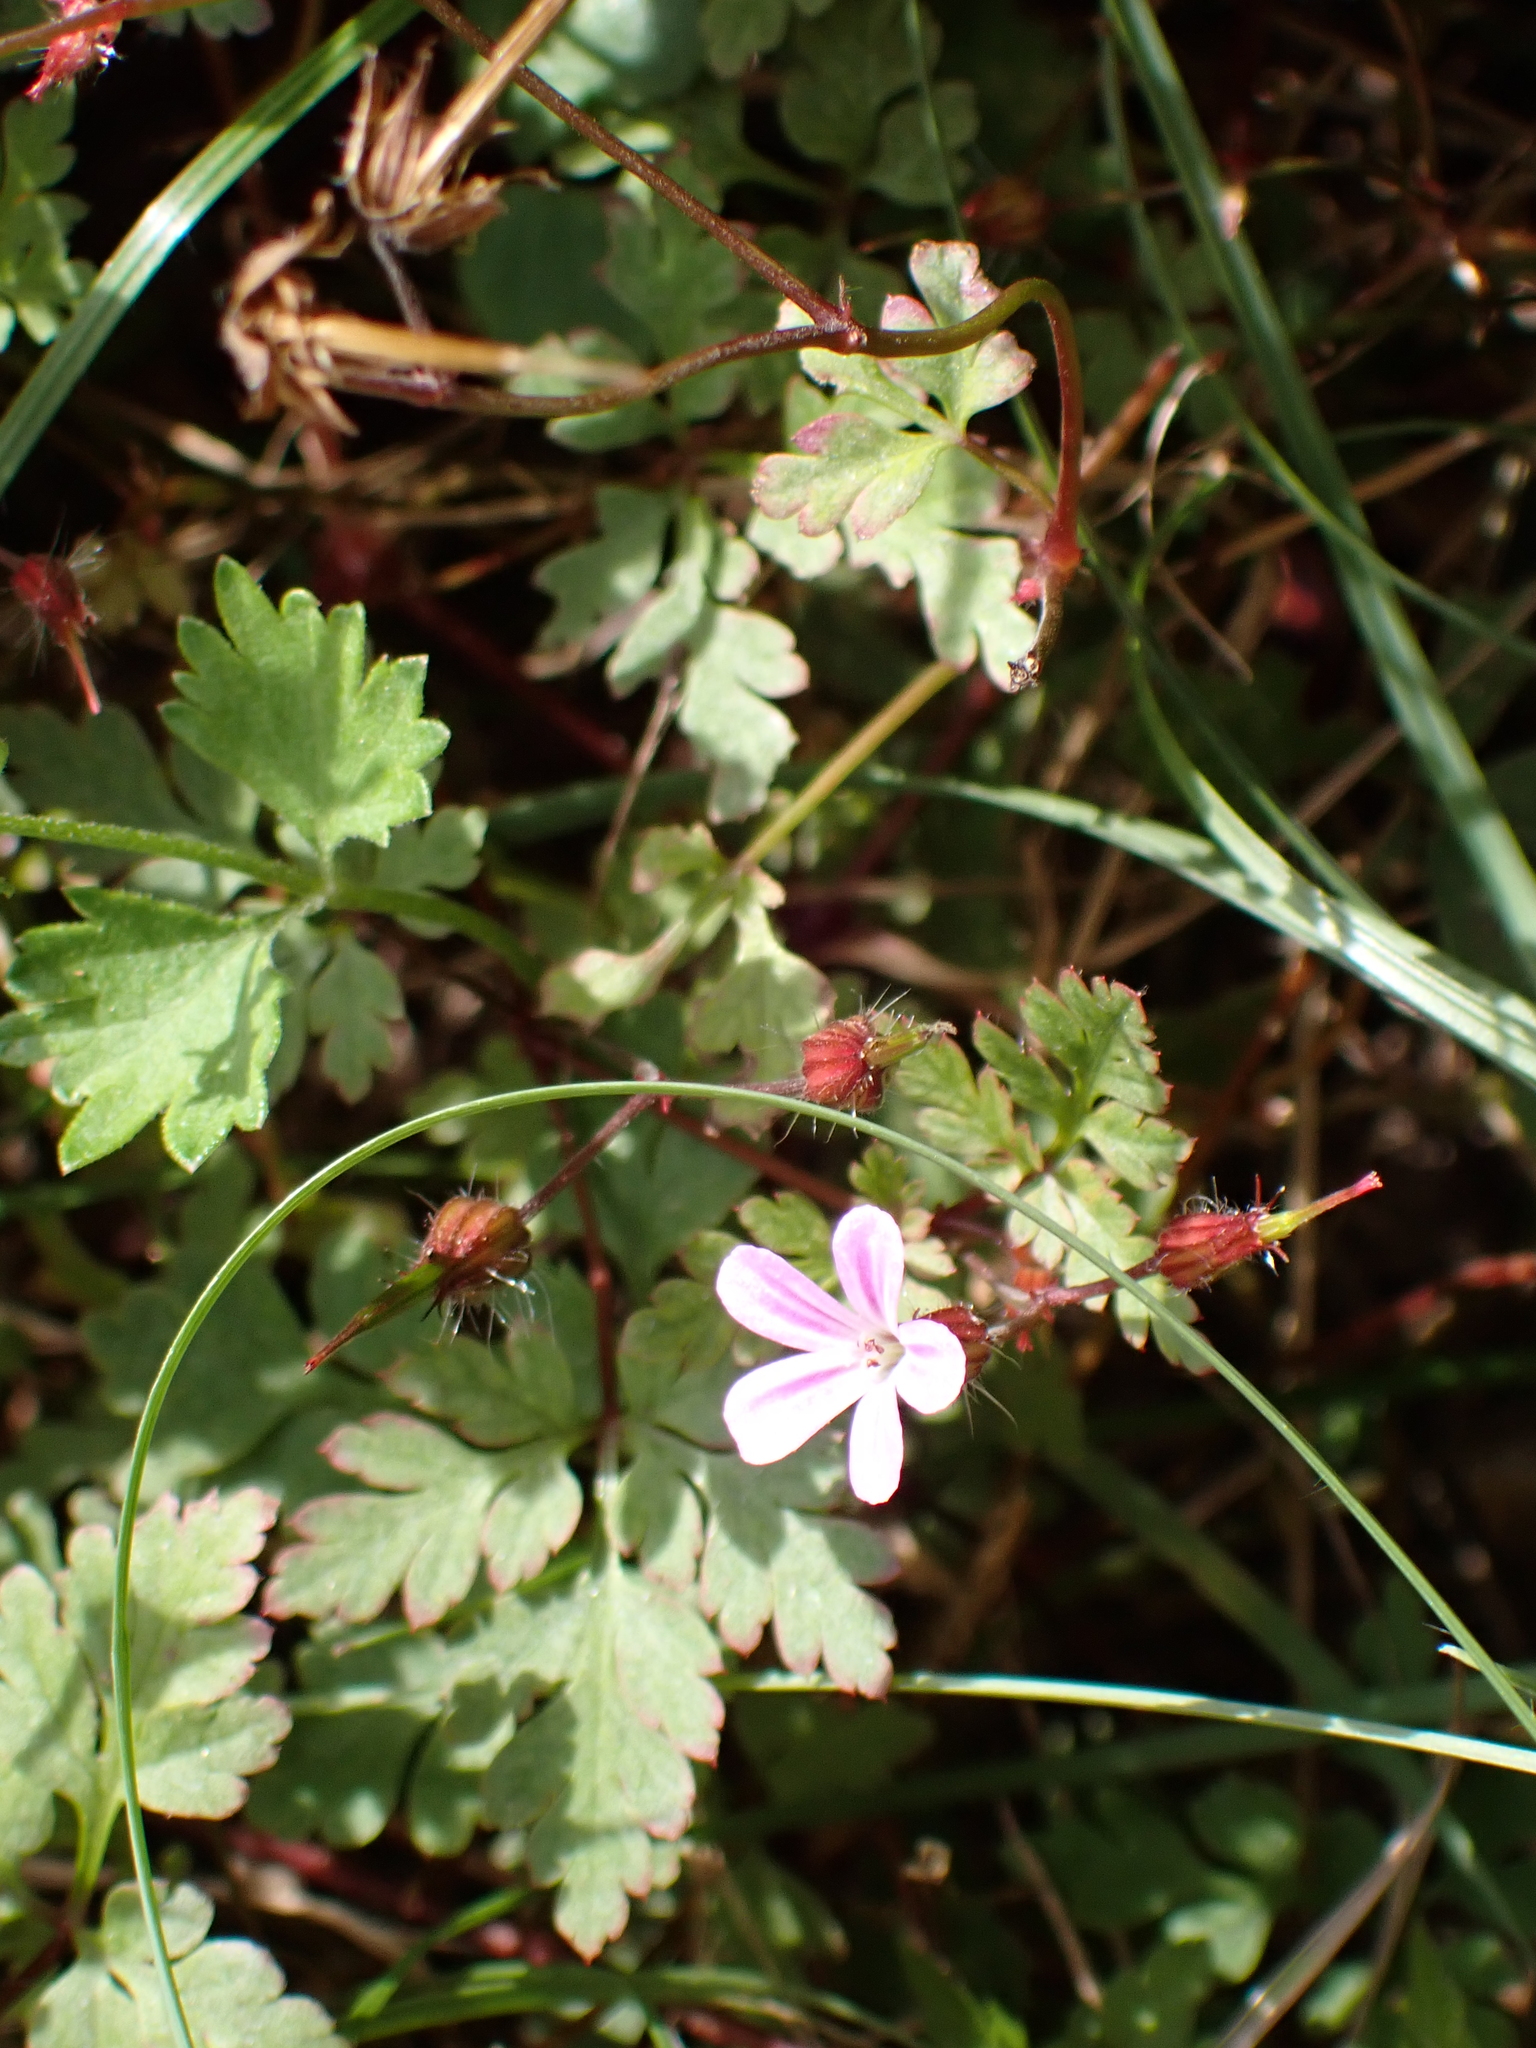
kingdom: Plantae
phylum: Tracheophyta
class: Magnoliopsida
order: Geraniales
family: Geraniaceae
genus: Geranium
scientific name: Geranium robertianum
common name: Herb-robert
